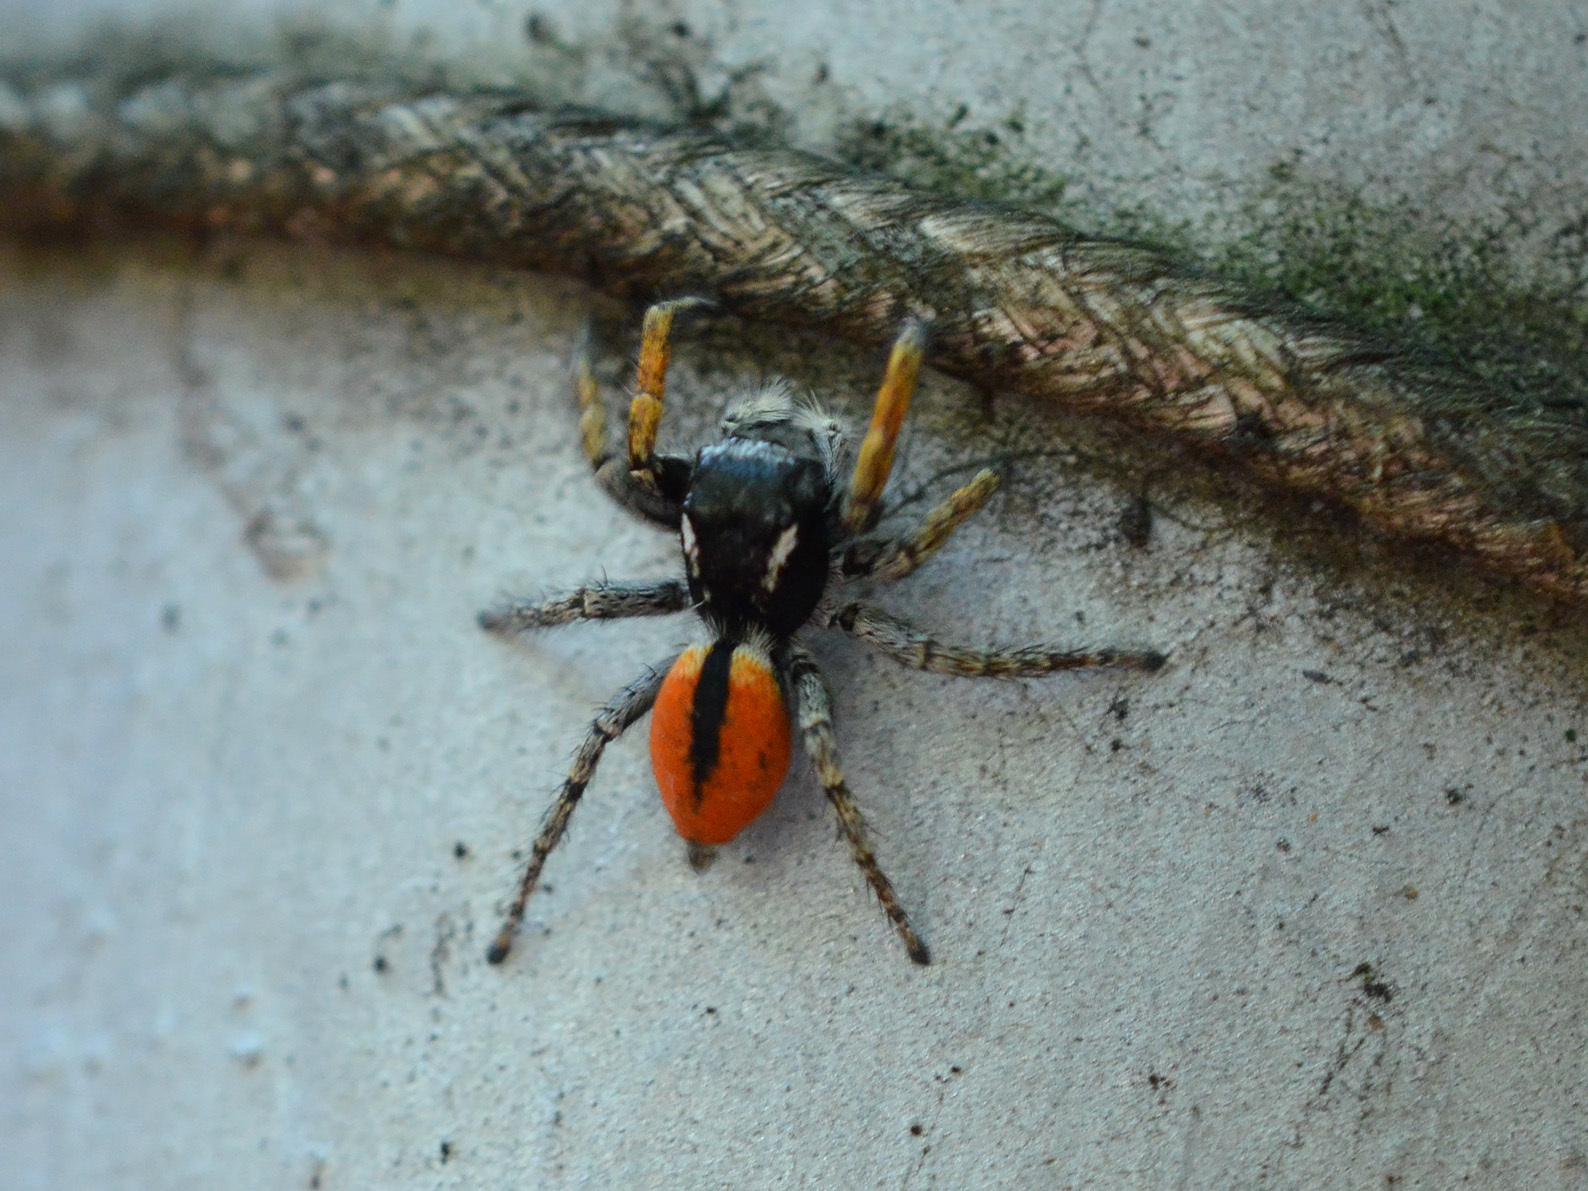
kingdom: Animalia
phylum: Arthropoda
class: Arachnida
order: Araneae
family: Salticidae
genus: Philaeus
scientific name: Philaeus chrysops
